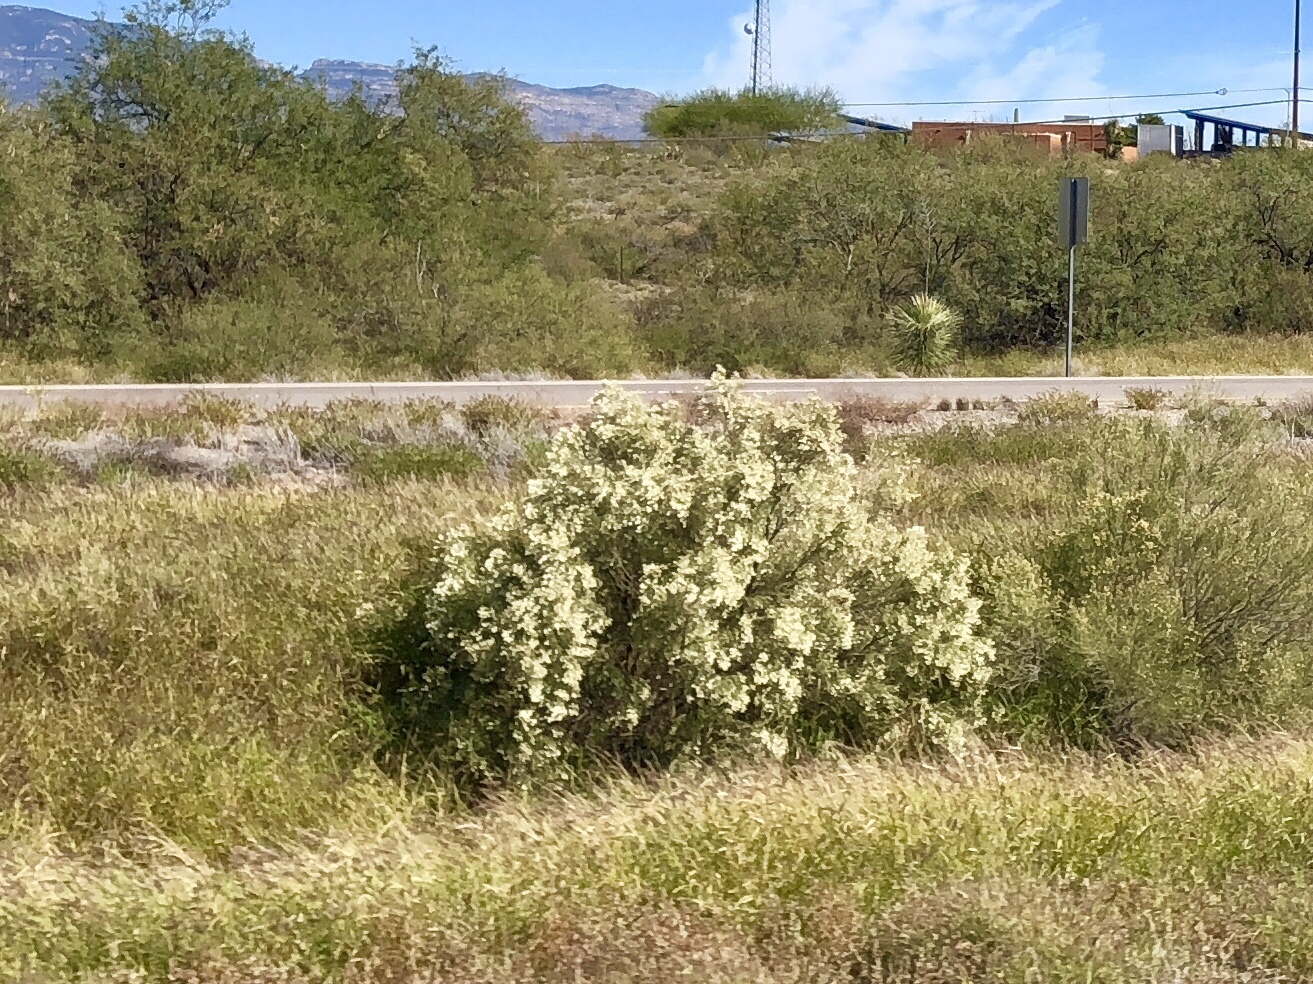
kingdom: Plantae
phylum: Tracheophyta
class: Magnoliopsida
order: Asterales
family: Asteraceae
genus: Baccharis
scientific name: Baccharis sarothroides
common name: Desert-broom
